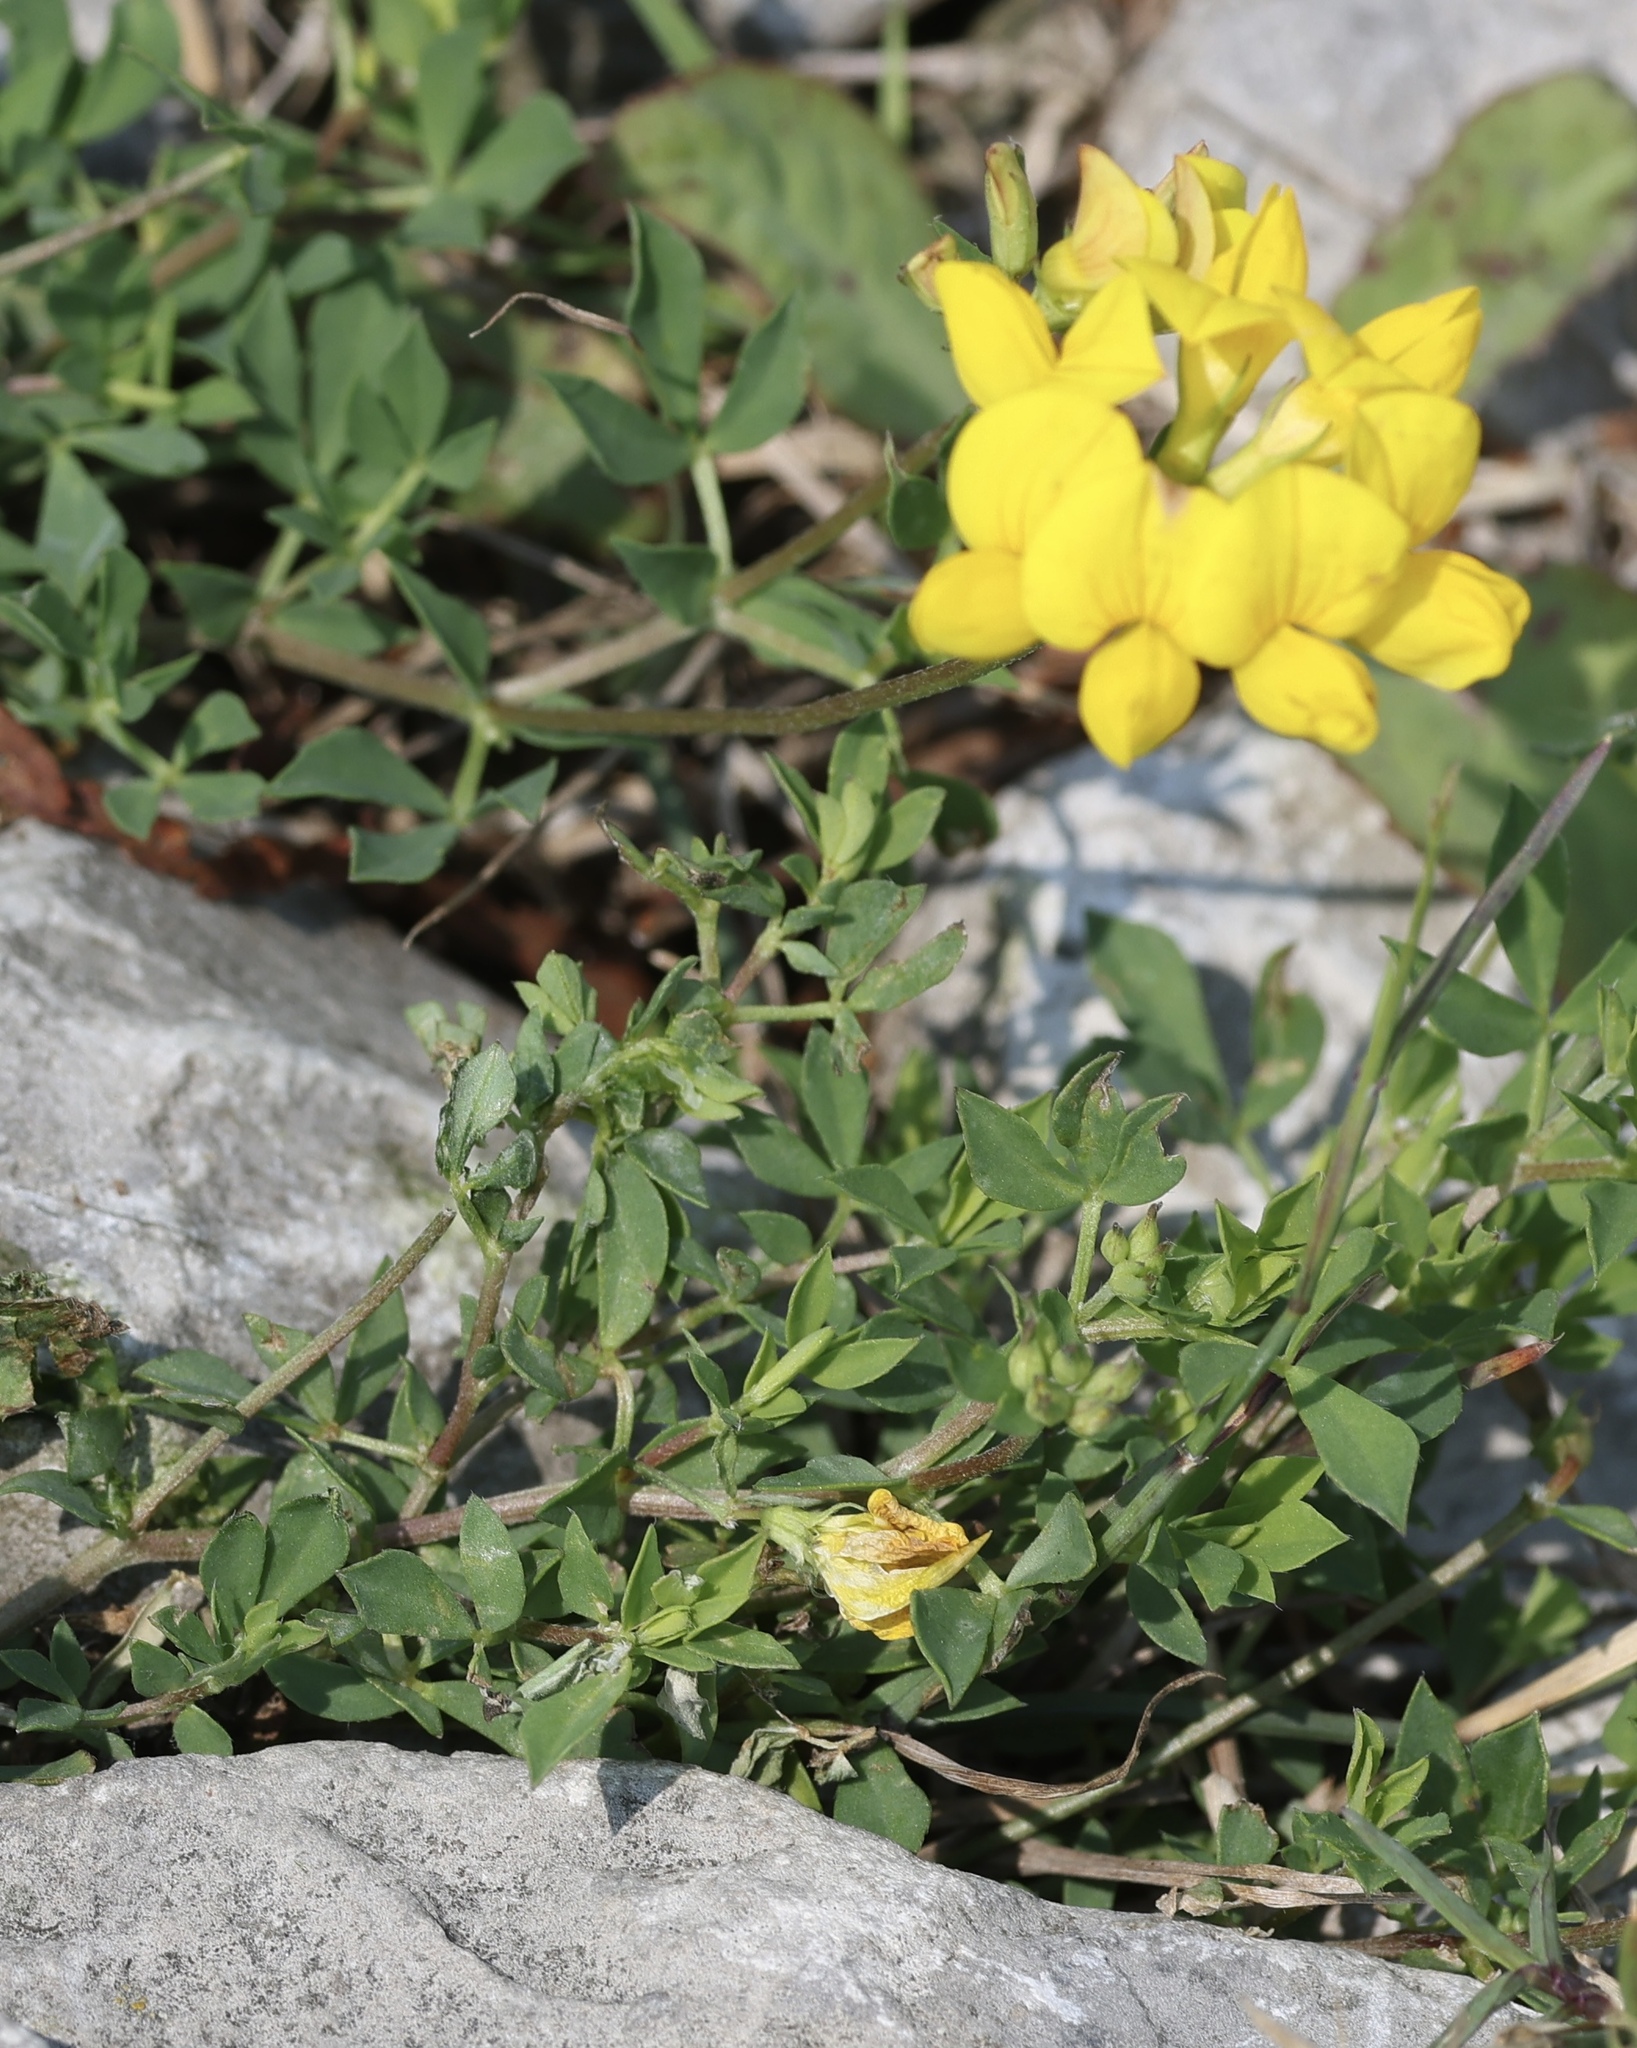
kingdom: Plantae
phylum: Tracheophyta
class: Magnoliopsida
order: Fabales
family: Fabaceae
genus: Lotus
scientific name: Lotus corniculatus
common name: Common bird's-foot-trefoil
